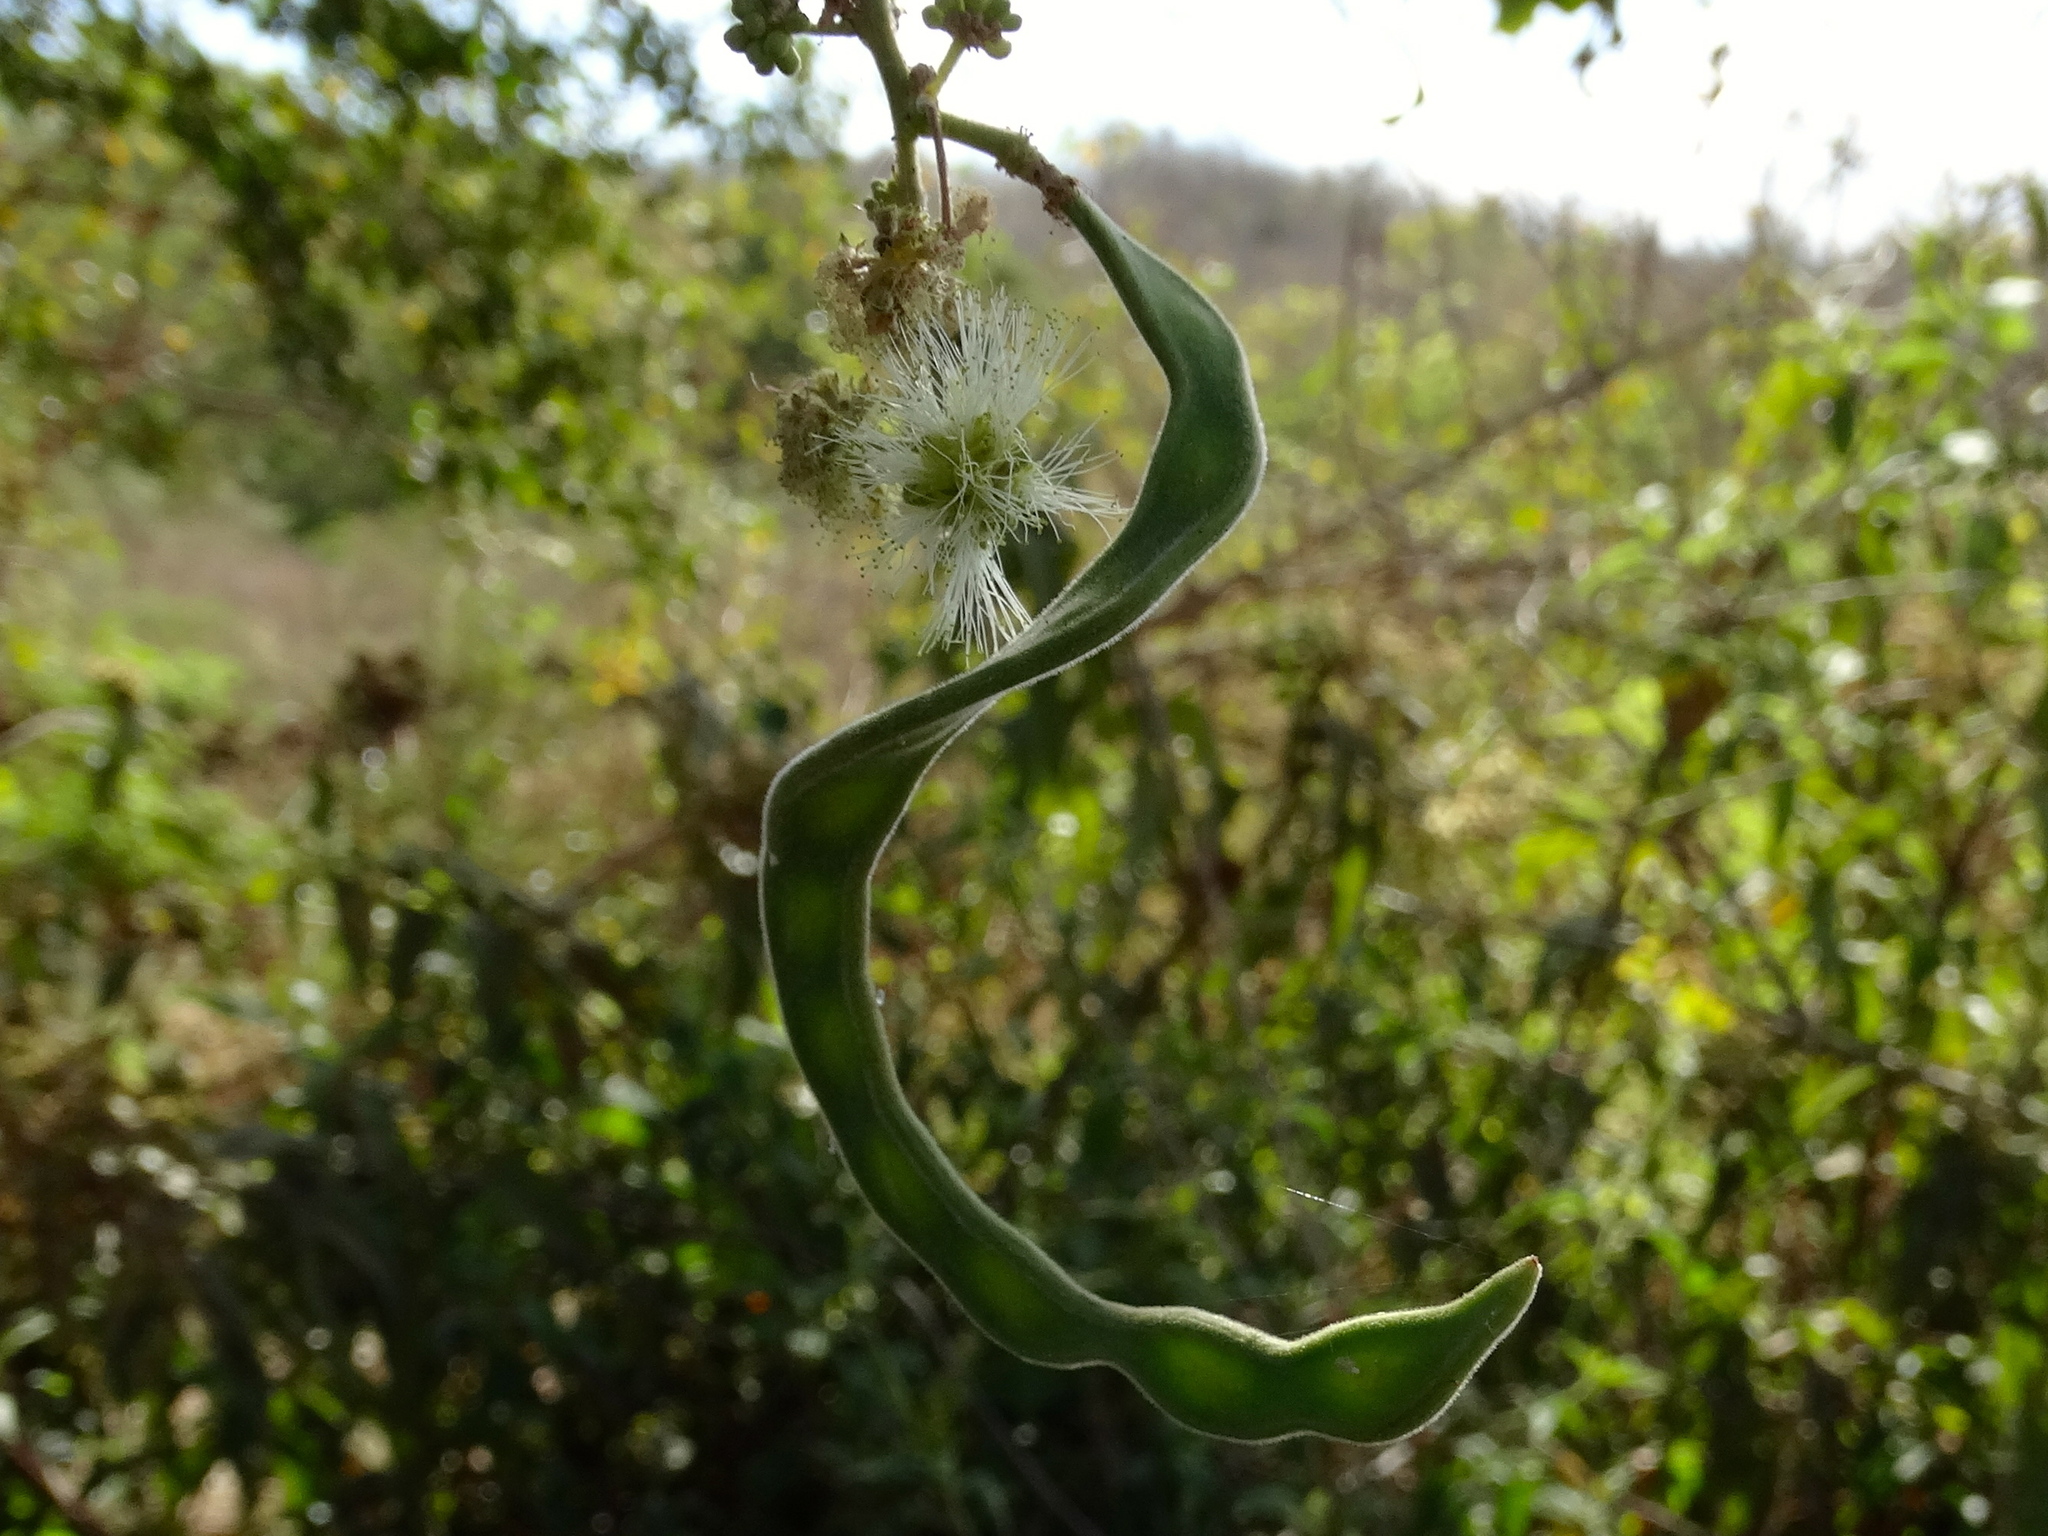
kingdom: Plantae
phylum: Tracheophyta
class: Magnoliopsida
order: Fabales
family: Fabaceae
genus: Pithecellobium
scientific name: Pithecellobium dulce
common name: Monkeypod
